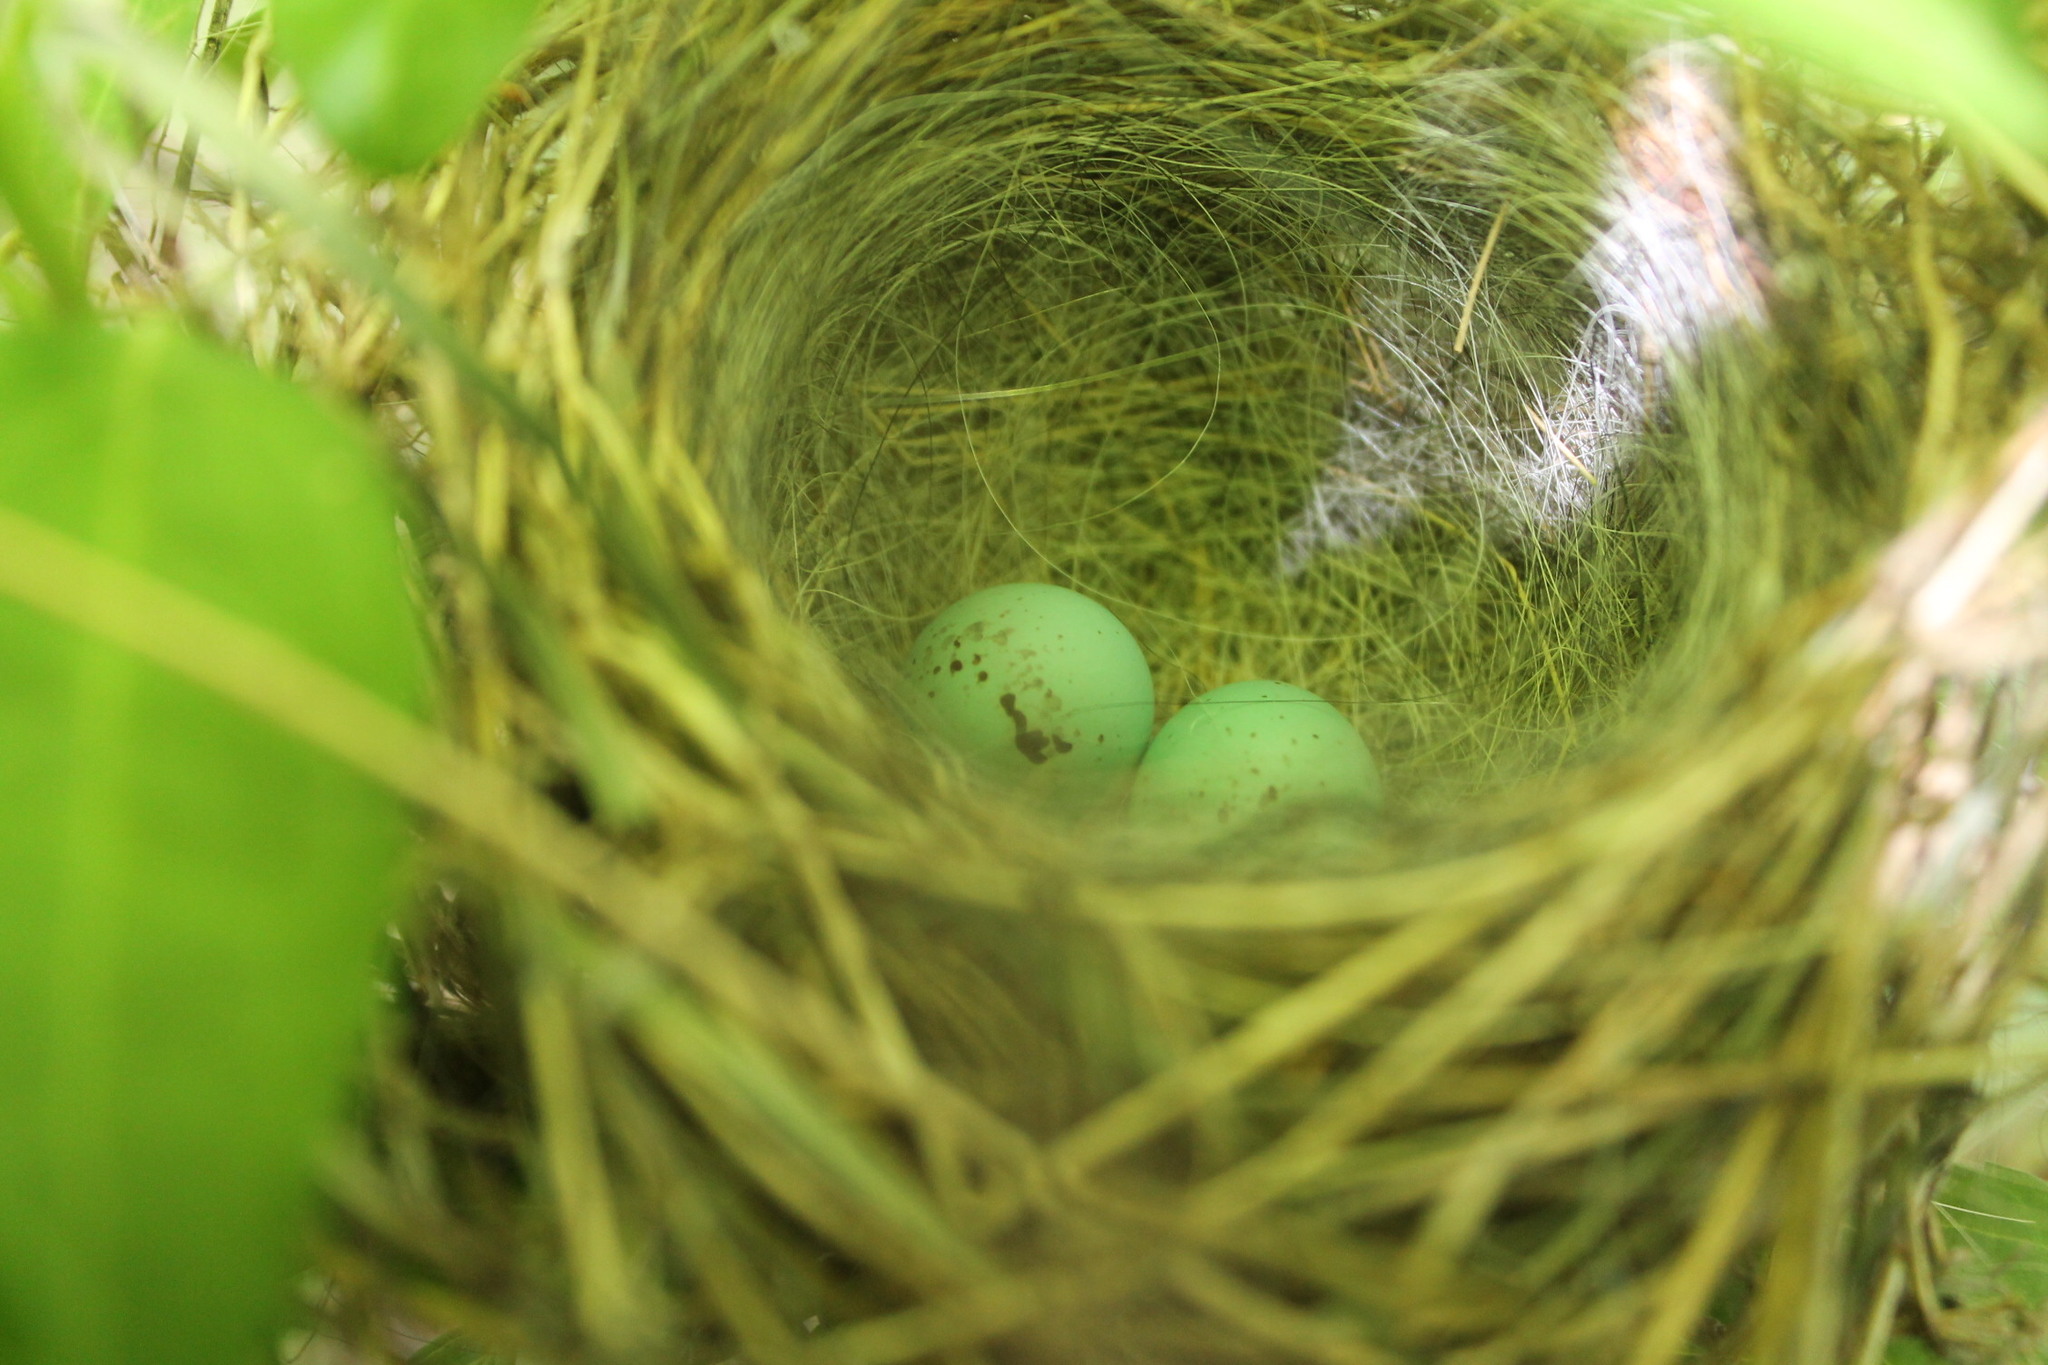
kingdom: Animalia
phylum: Chordata
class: Aves
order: Passeriformes
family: Passerellidae
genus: Spizella
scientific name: Spizella passerina
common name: Chipping sparrow
